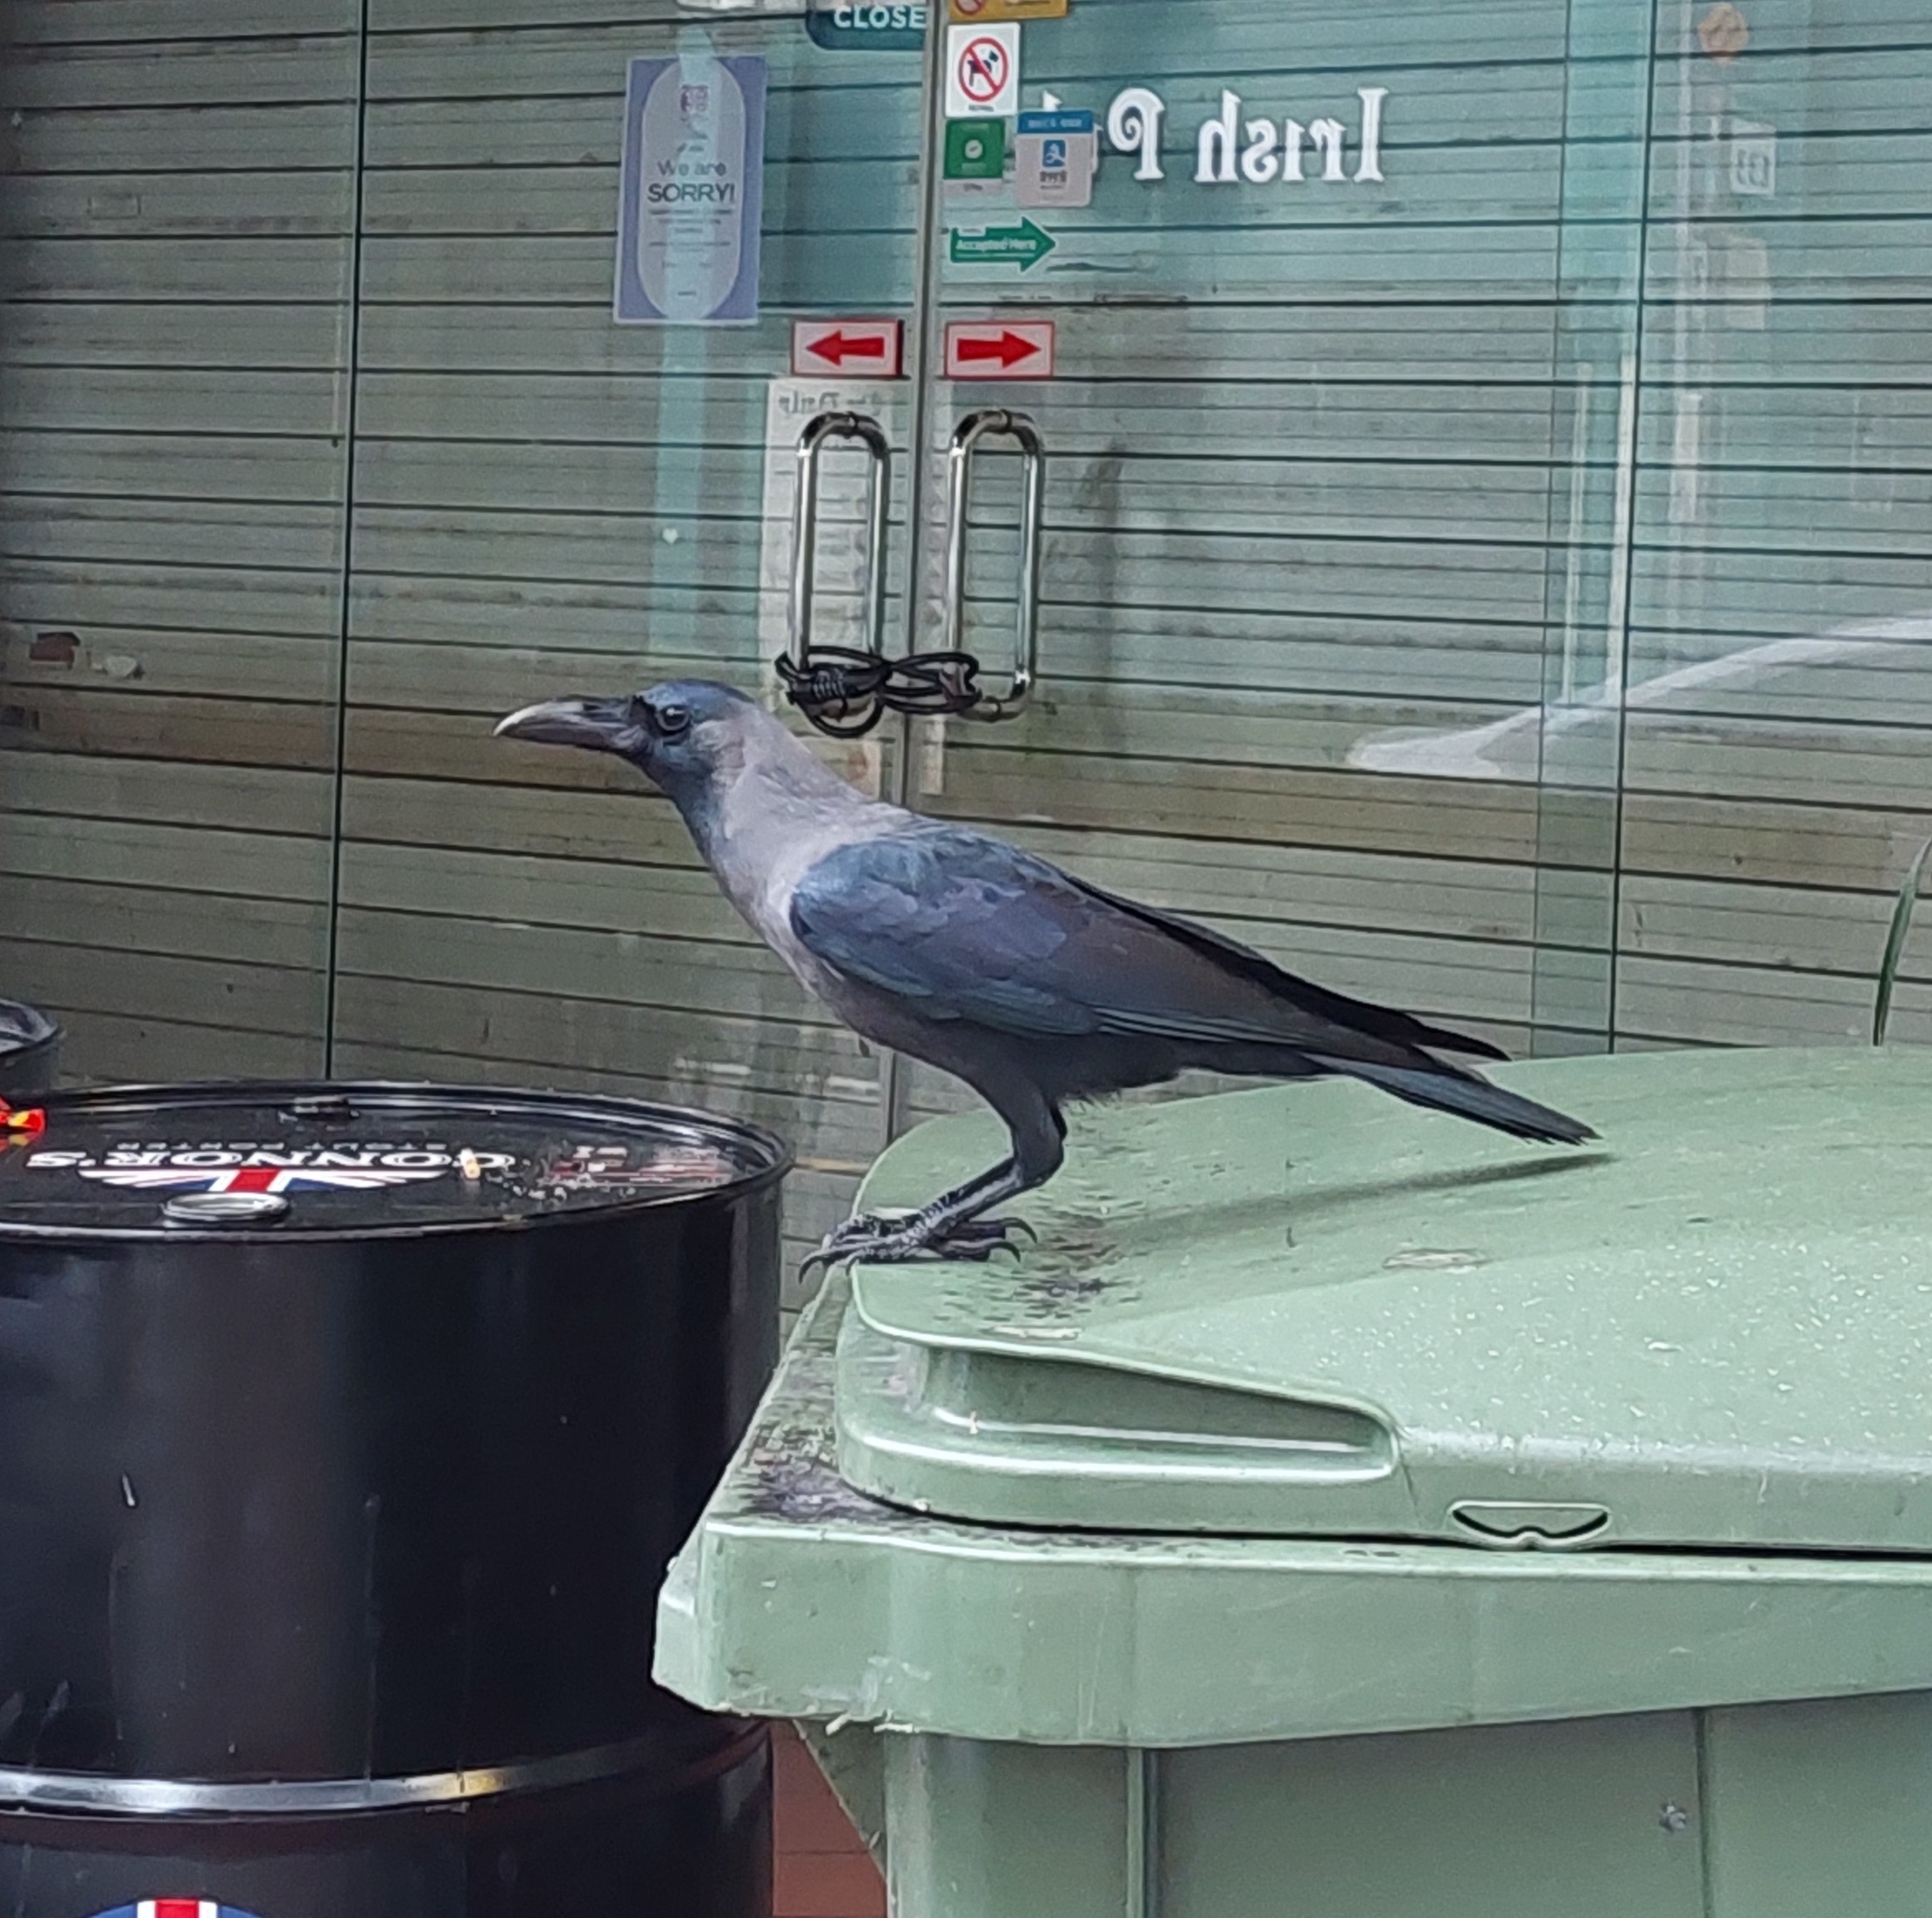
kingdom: Animalia
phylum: Chordata
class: Aves
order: Passeriformes
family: Corvidae
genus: Corvus
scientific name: Corvus splendens
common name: House crow
